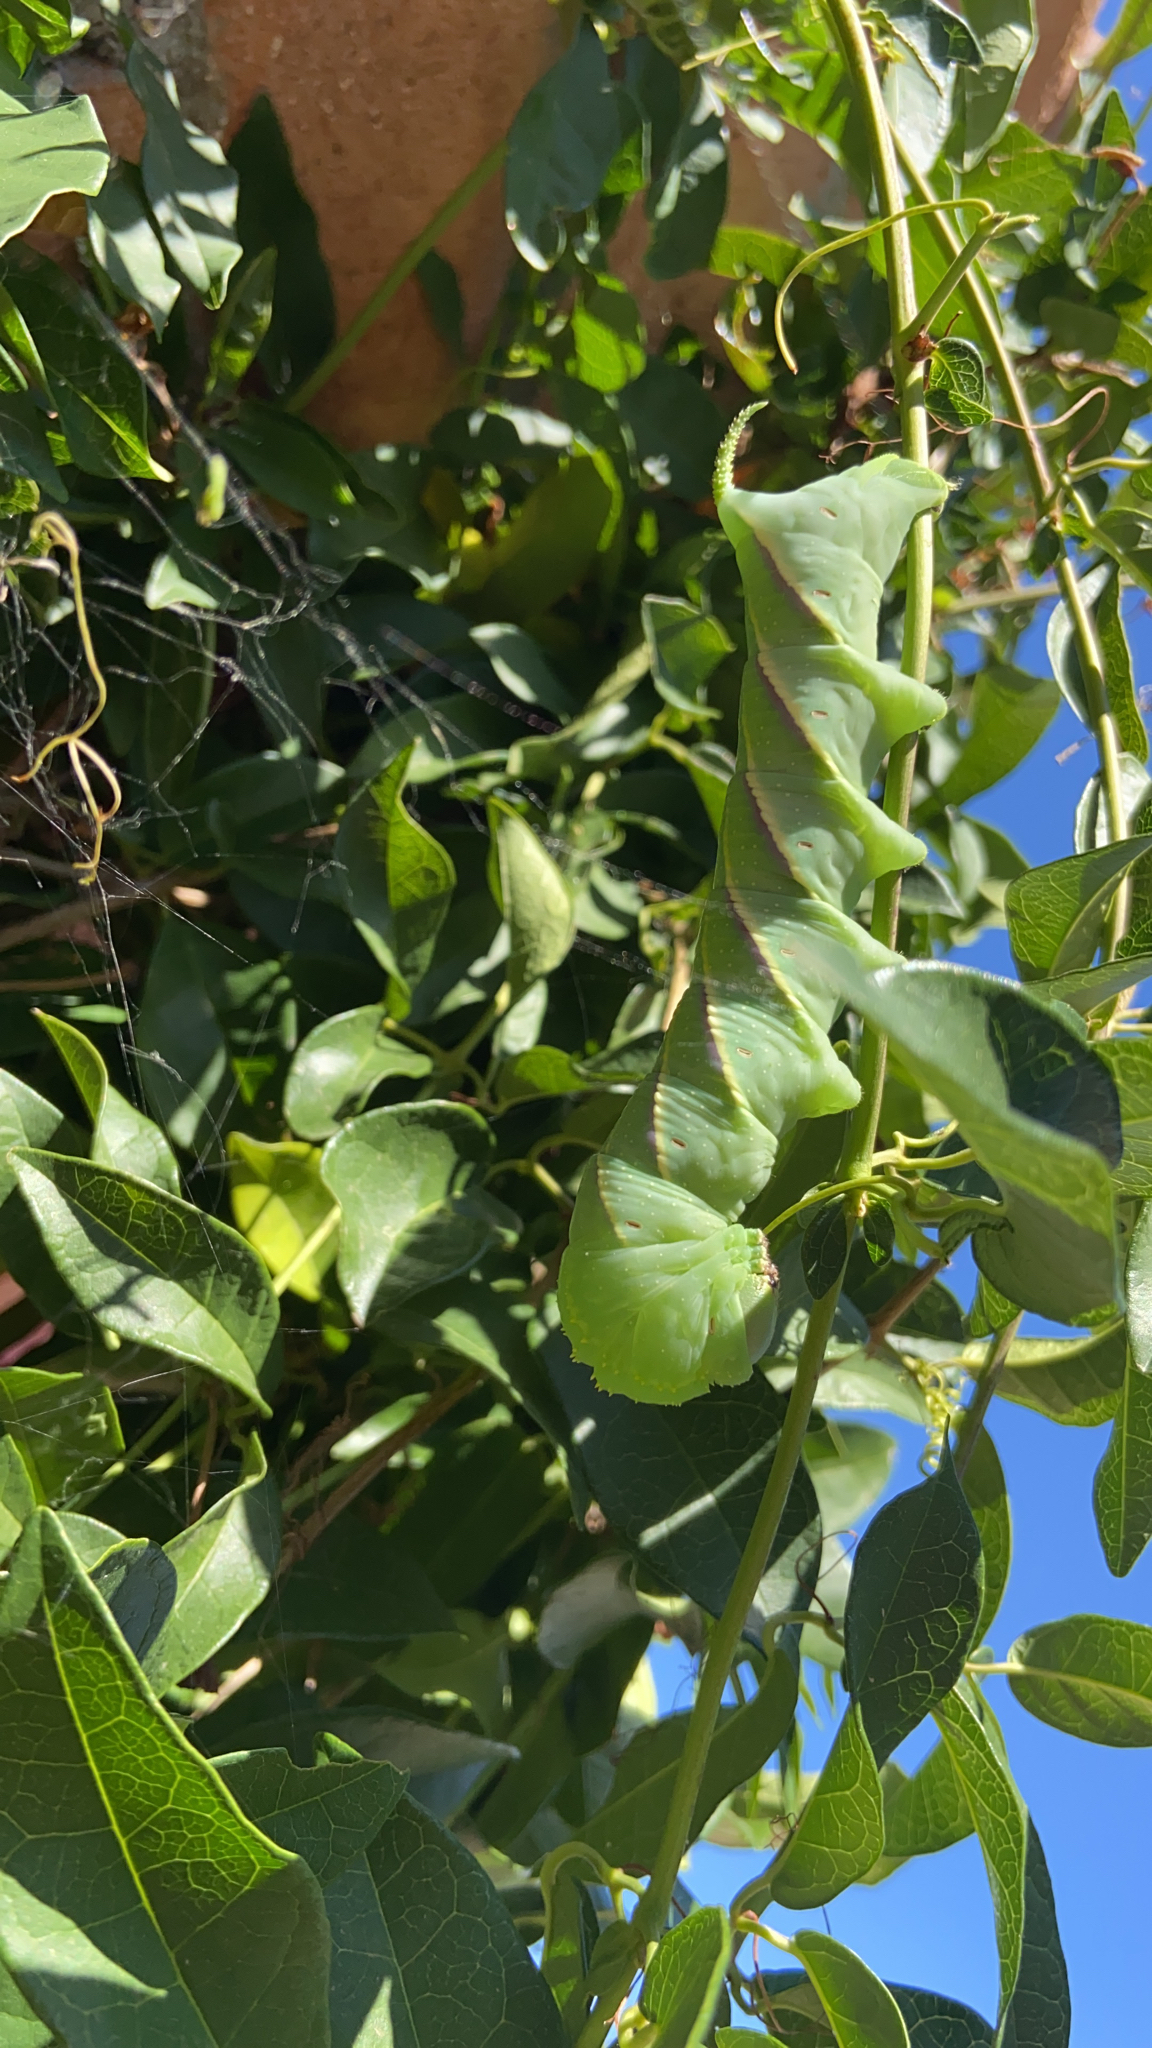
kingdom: Animalia
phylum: Arthropoda
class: Insecta
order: Lepidoptera
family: Sphingidae
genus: Manduca
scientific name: Manduca rustica
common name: Rustic sphinx
